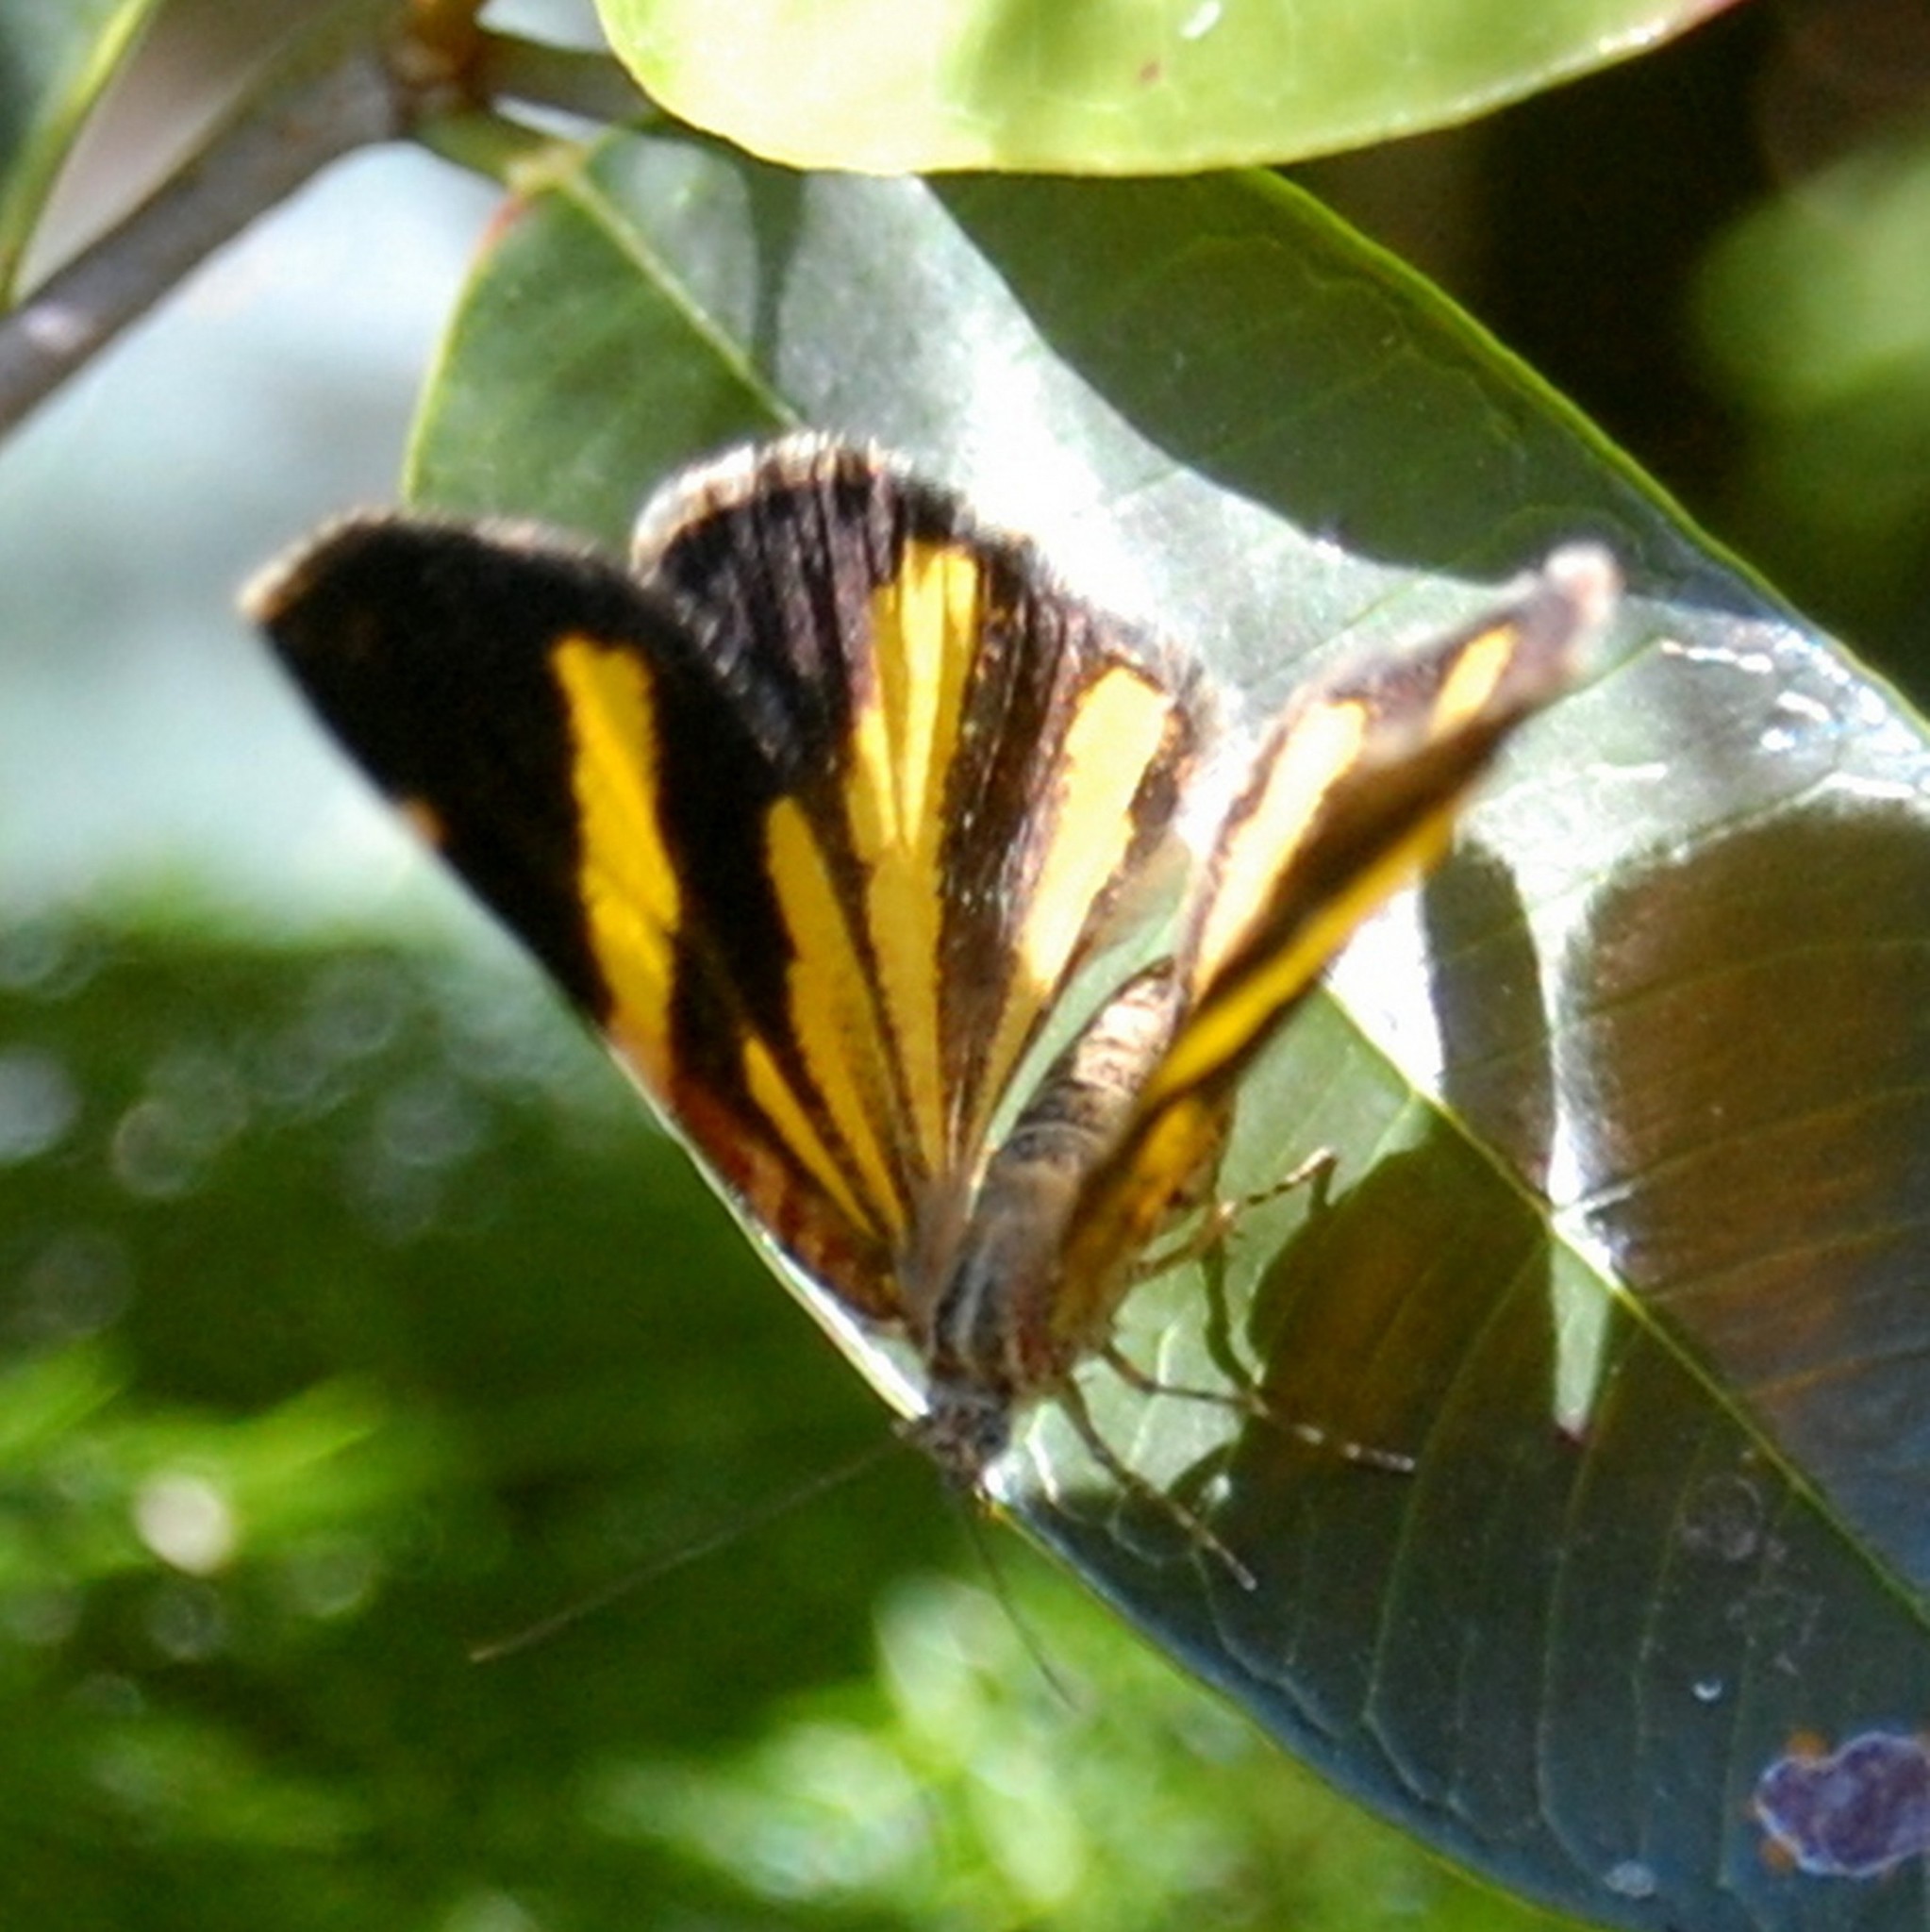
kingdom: Animalia
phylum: Arthropoda
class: Insecta
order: Lepidoptera
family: Geometridae
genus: Heterusia
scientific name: Heterusia quadruplicaria
